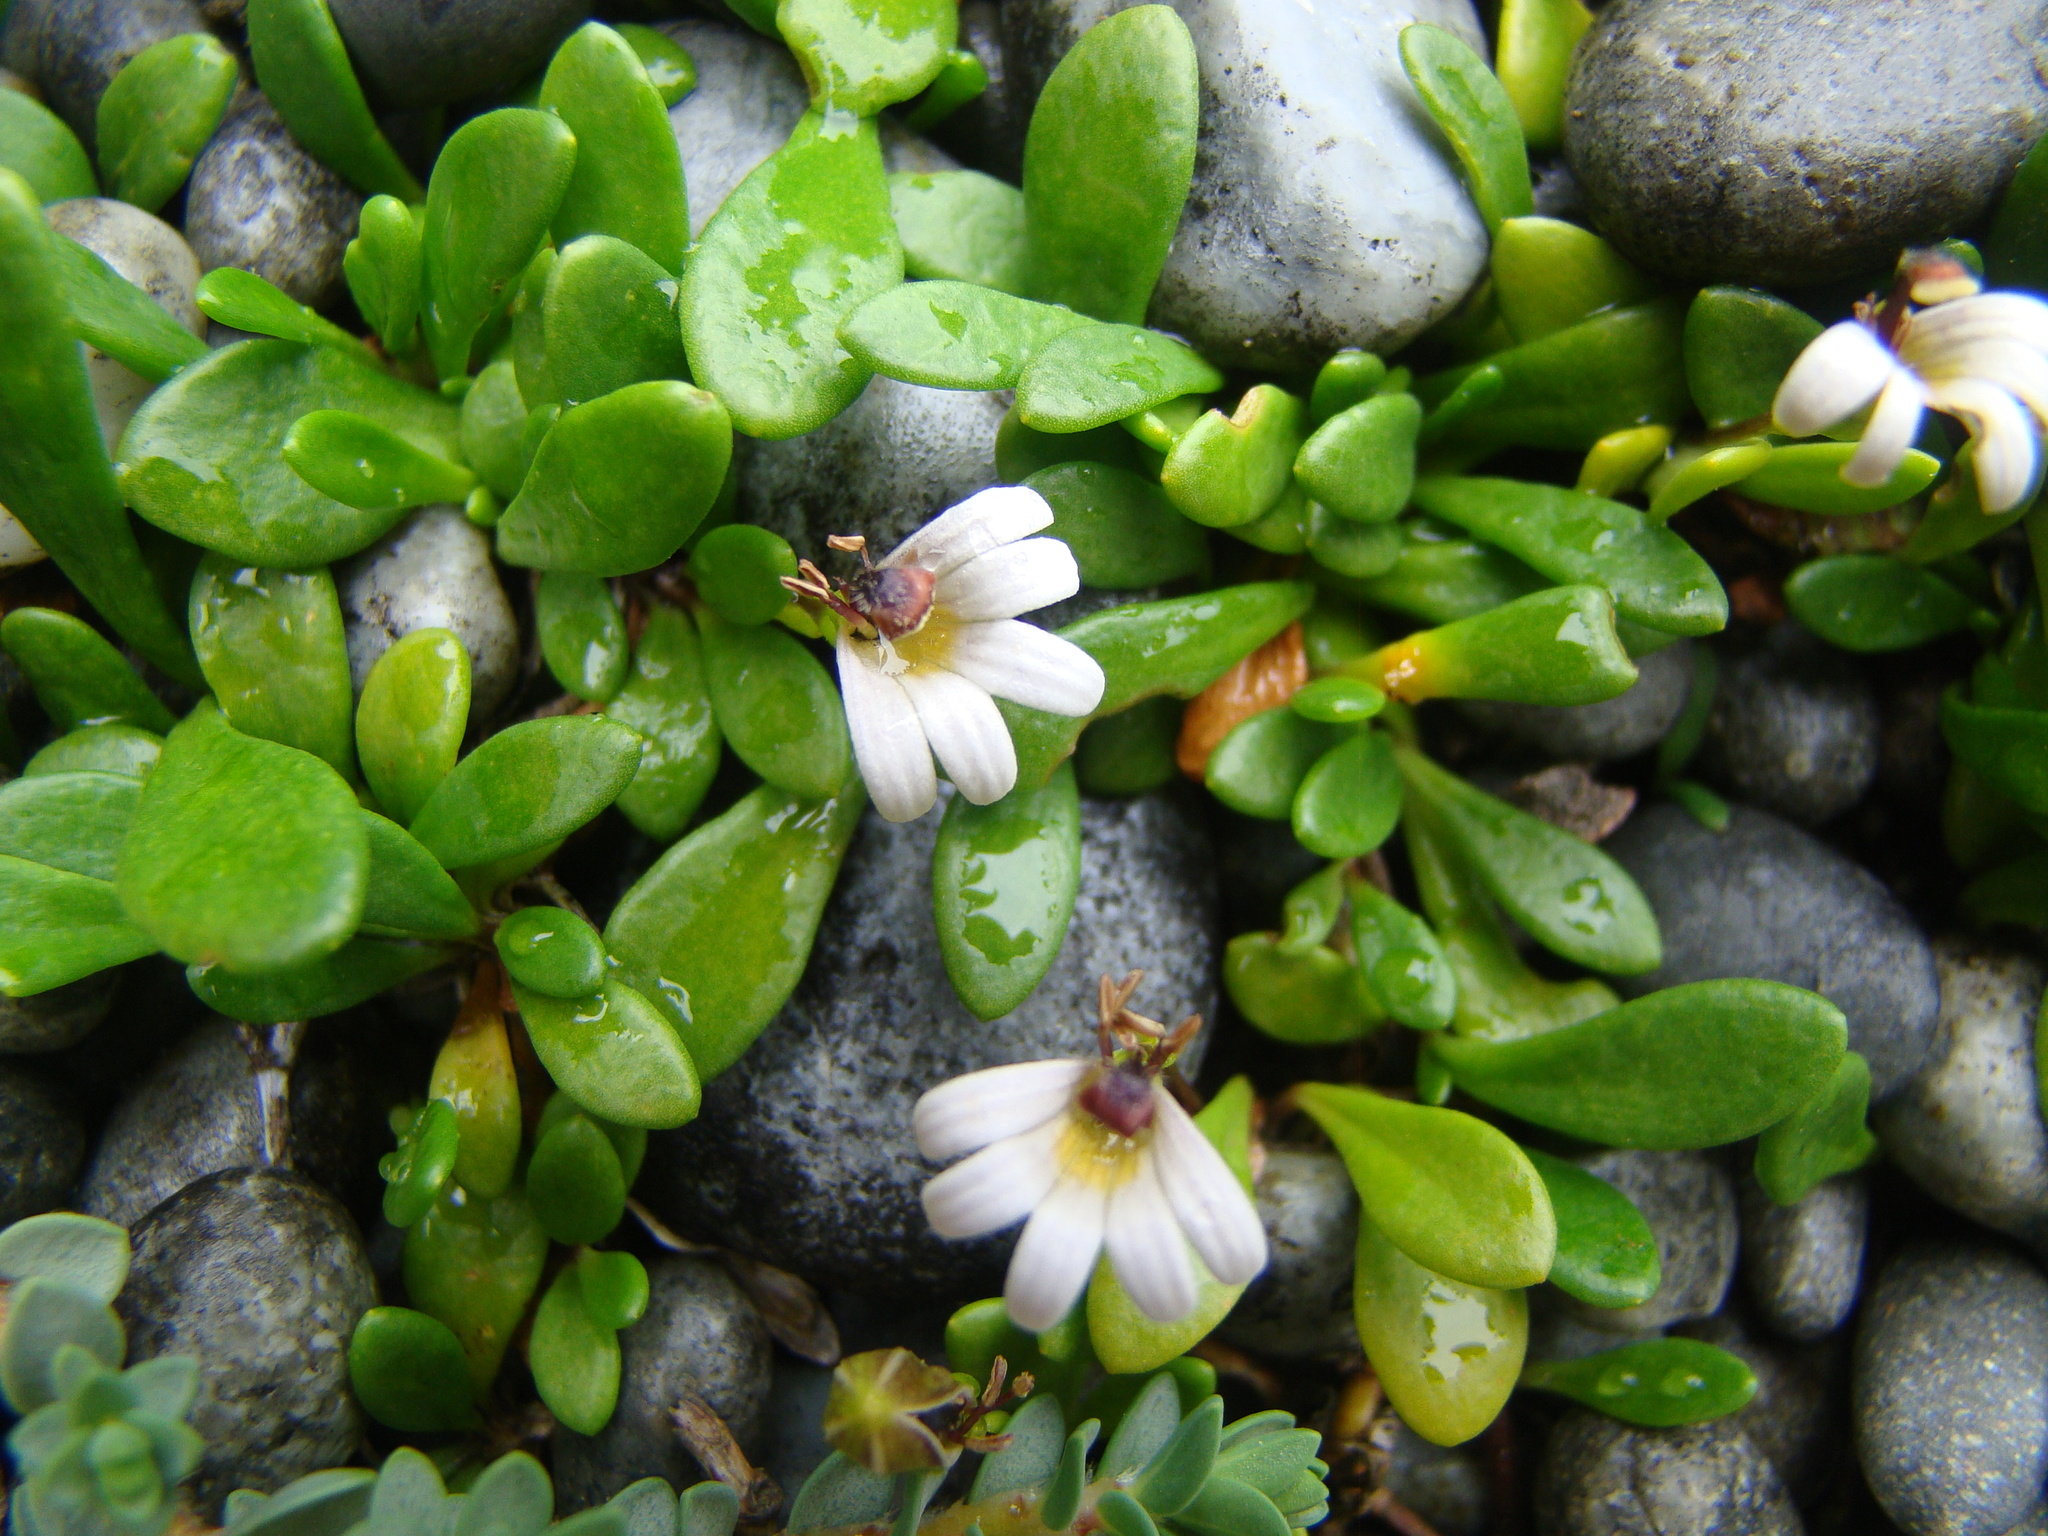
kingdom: Plantae
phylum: Tracheophyta
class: Magnoliopsida
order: Asterales
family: Goodeniaceae
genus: Goodenia
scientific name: Goodenia radicans
